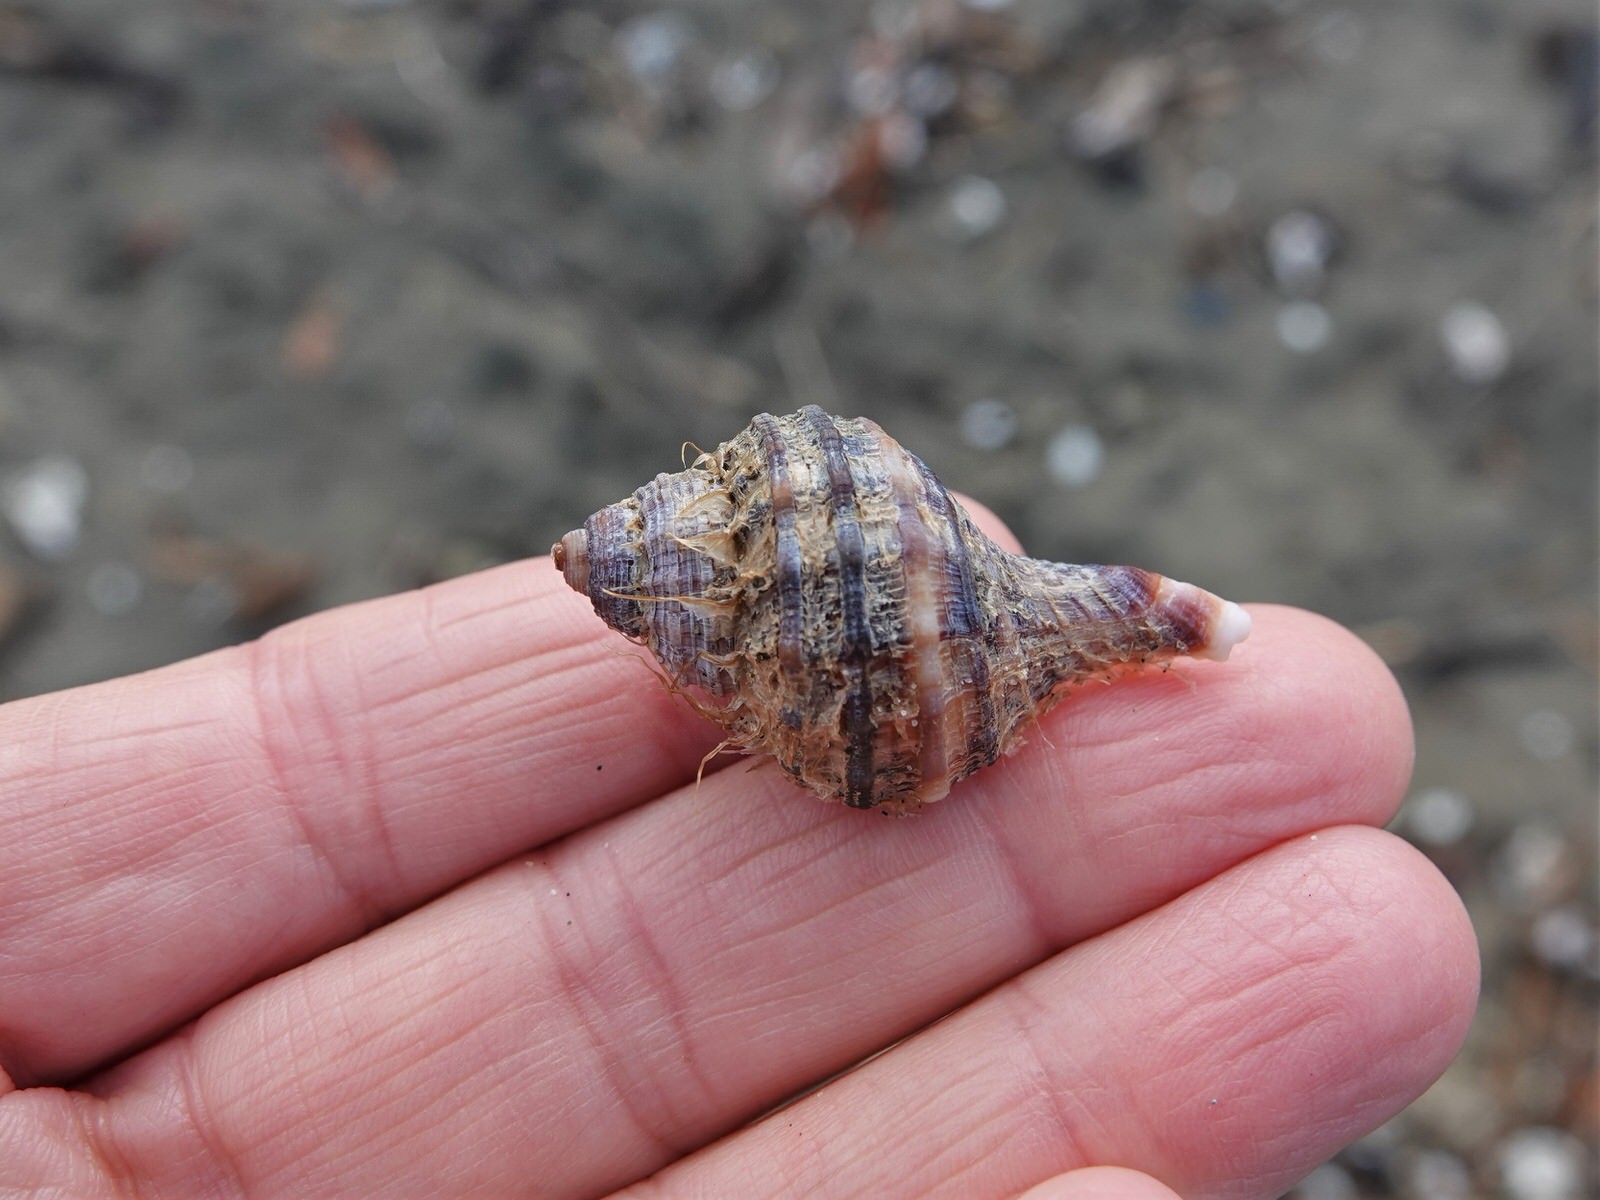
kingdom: Animalia
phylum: Mollusca
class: Gastropoda
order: Littorinimorpha
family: Cymatiidae
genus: Monoplex
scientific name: Monoplex parthenopeus
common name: Giant triton
